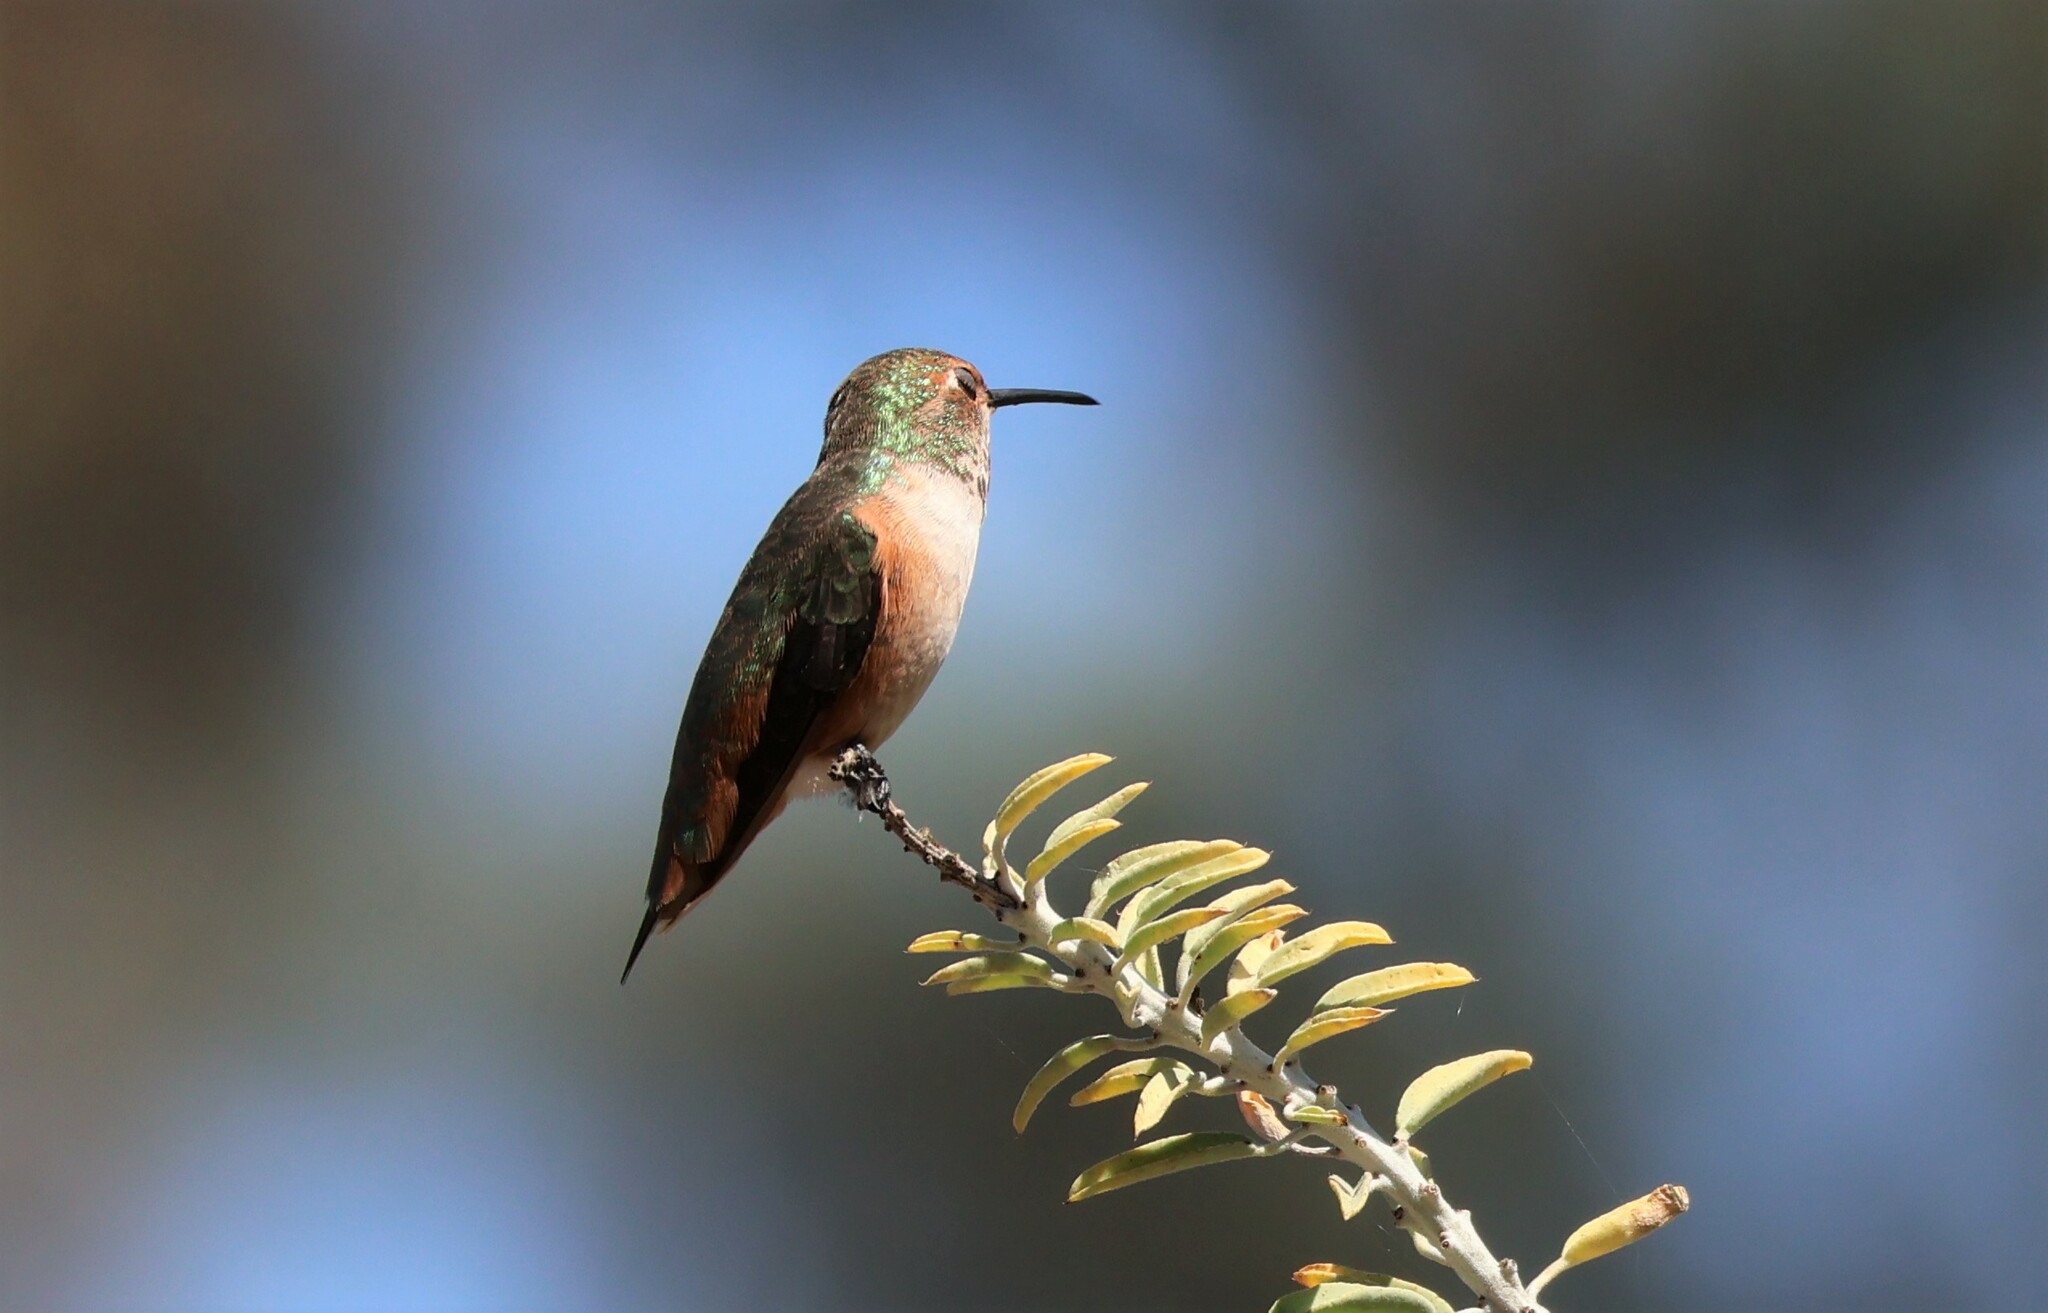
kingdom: Animalia
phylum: Chordata
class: Aves
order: Apodiformes
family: Trochilidae
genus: Selasphorus
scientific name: Selasphorus
